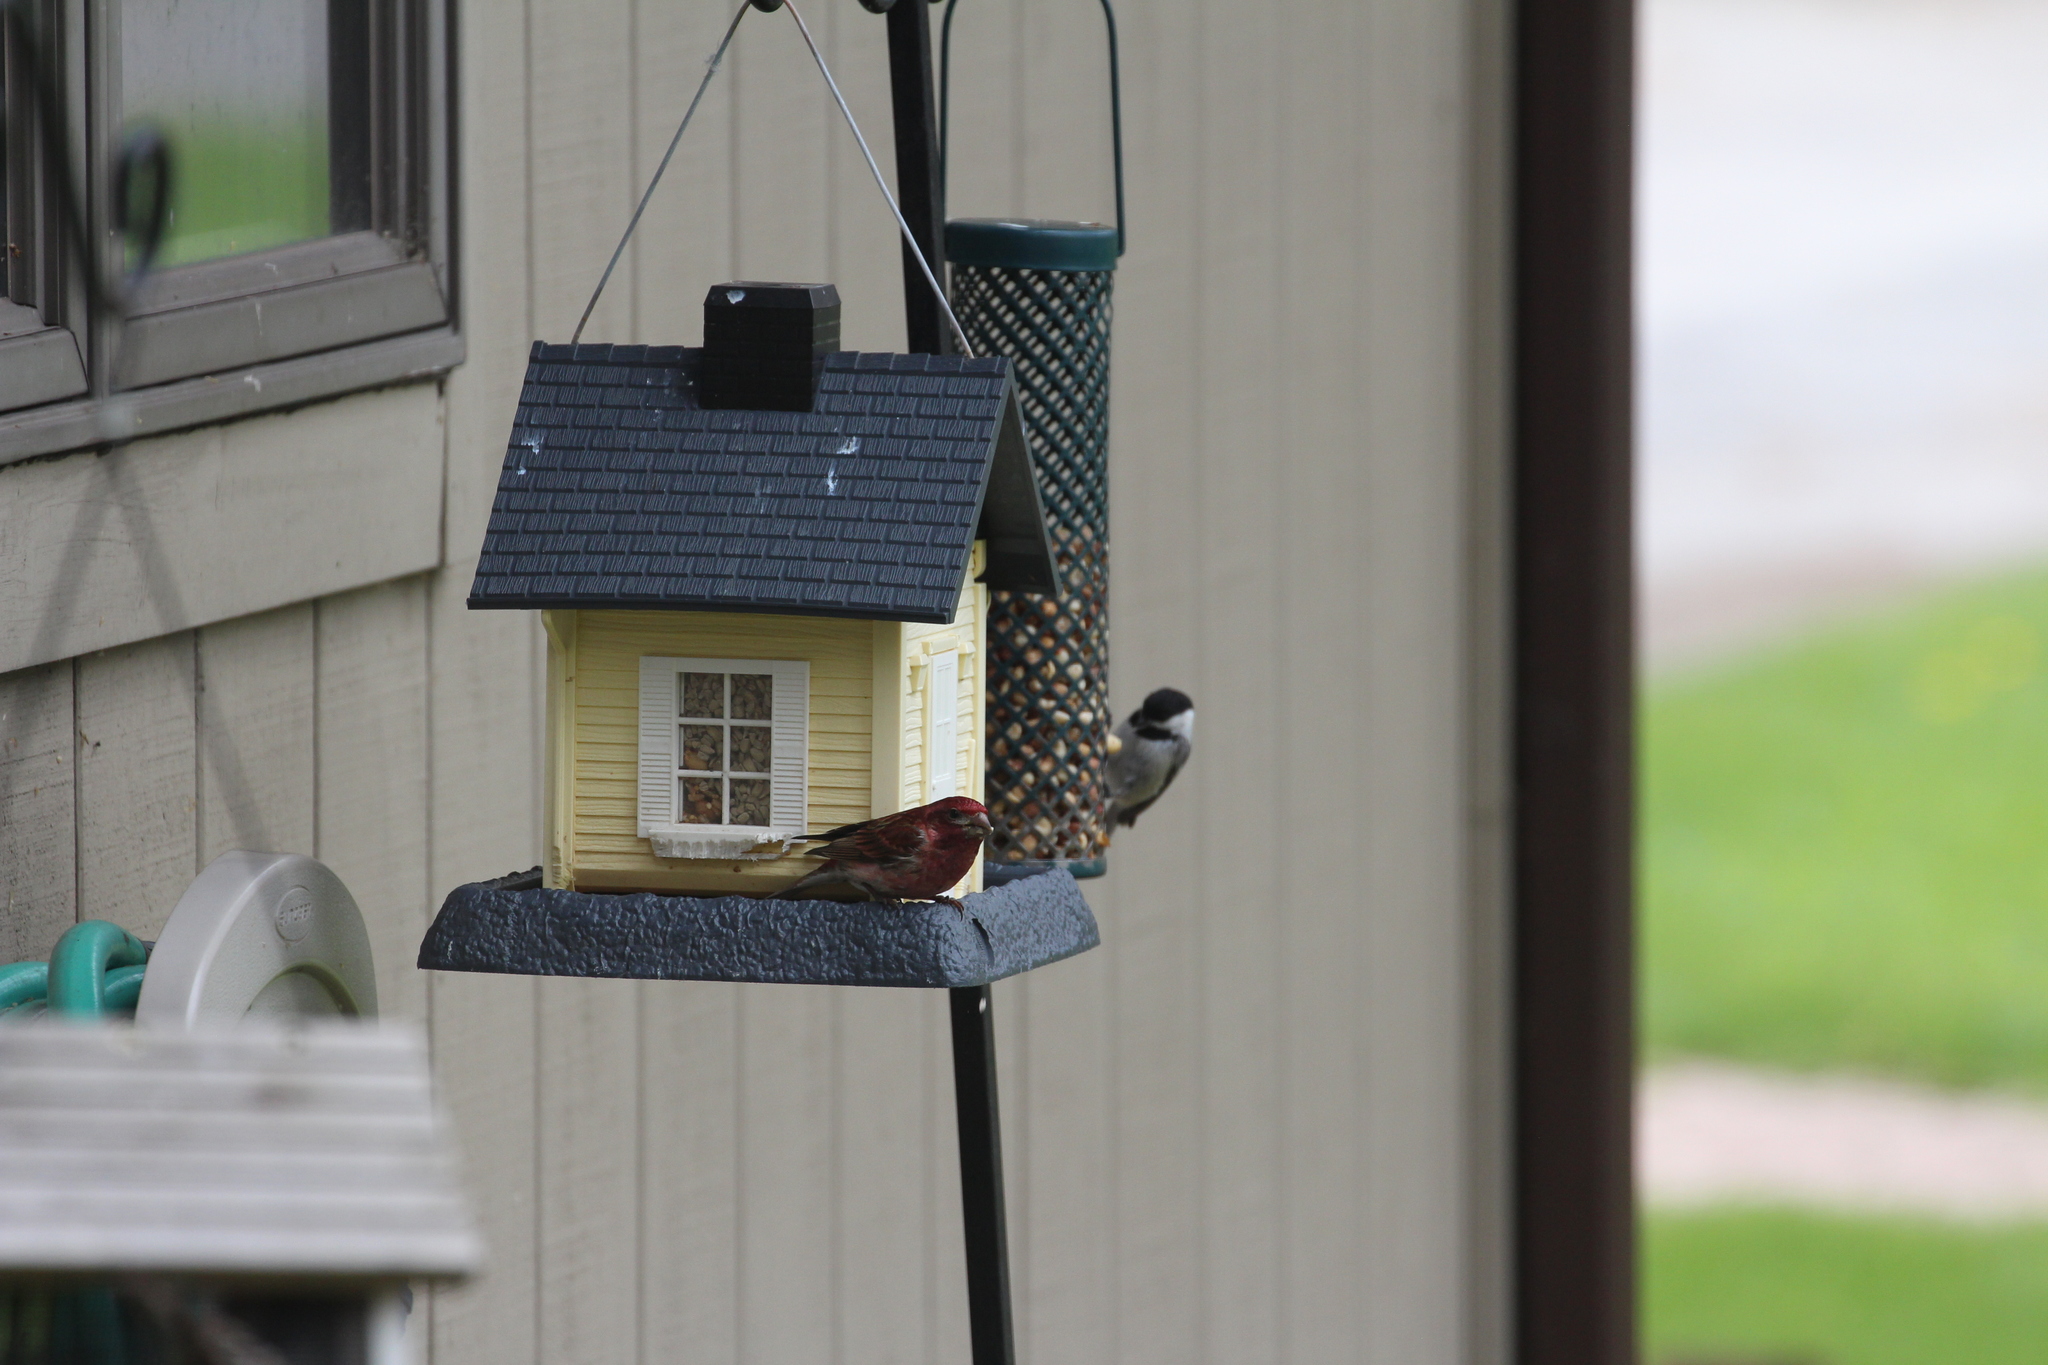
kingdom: Animalia
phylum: Chordata
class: Aves
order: Passeriformes
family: Fringillidae
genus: Haemorhous
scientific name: Haemorhous purpureus
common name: Purple finch
